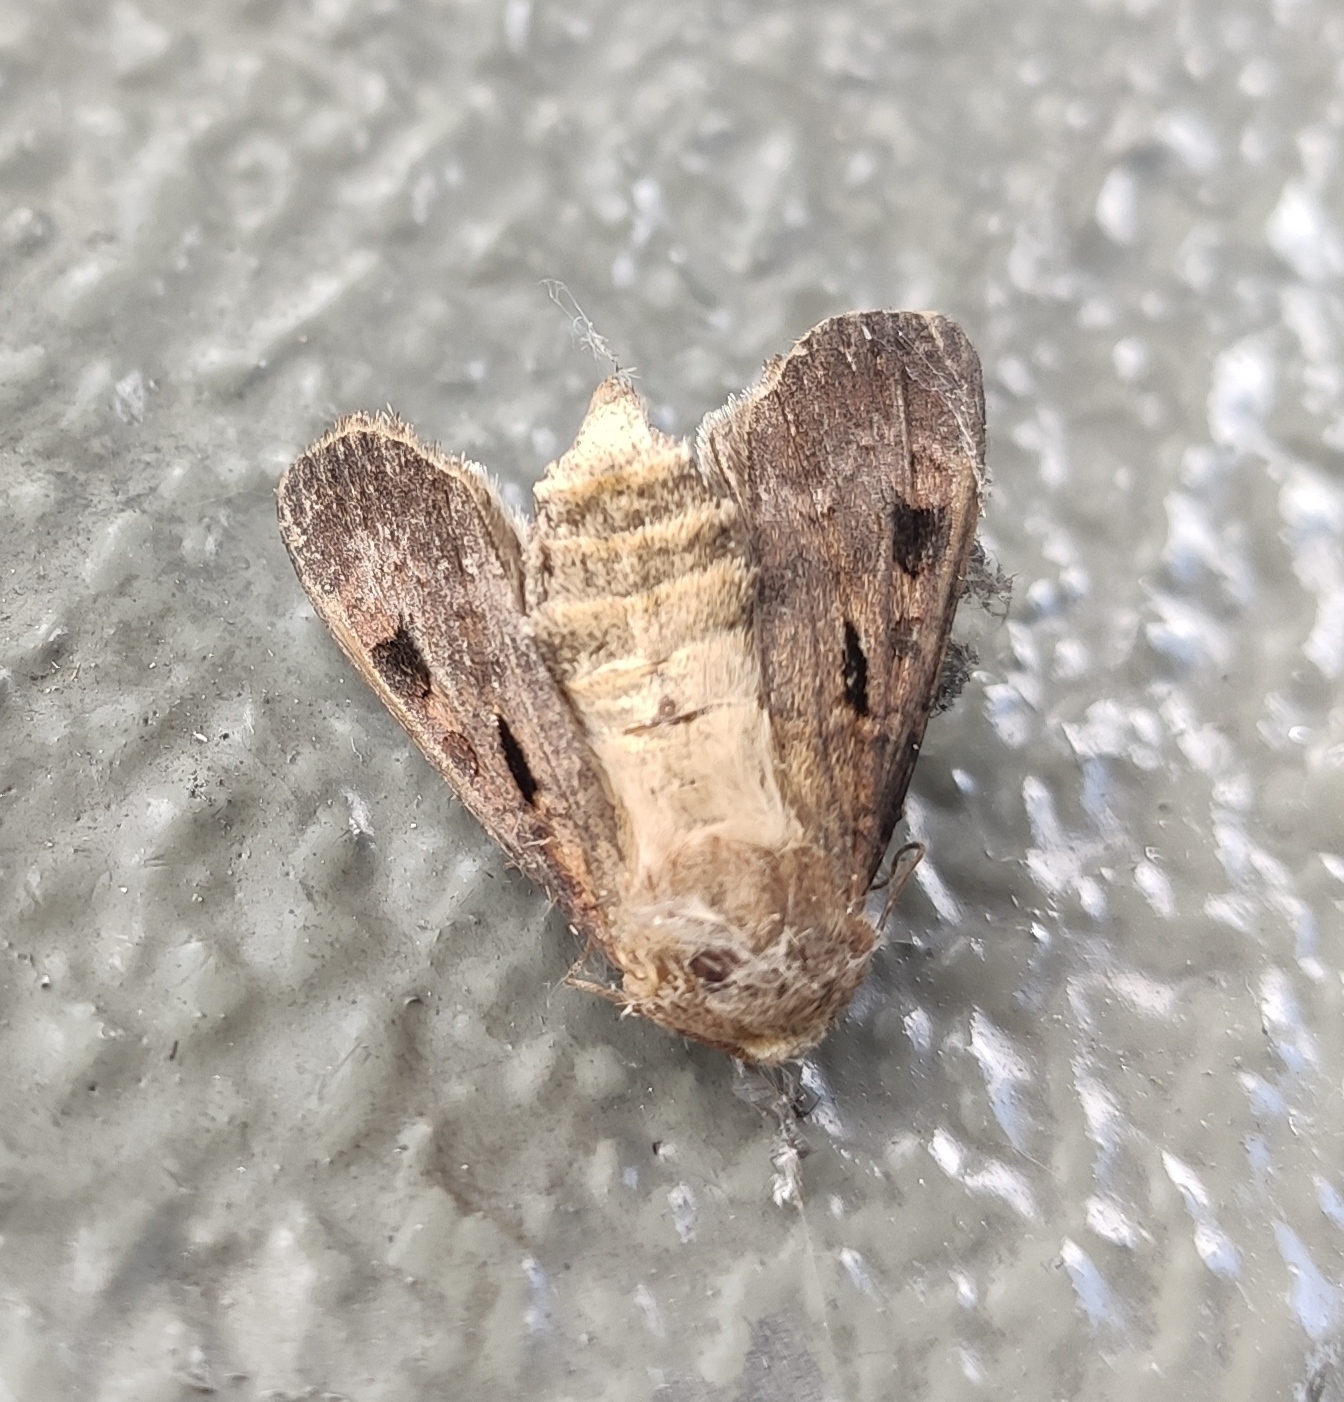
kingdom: Animalia
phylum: Arthropoda
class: Insecta
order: Lepidoptera
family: Noctuidae
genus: Agrotis
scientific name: Agrotis exclamationis
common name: Heart and dart
